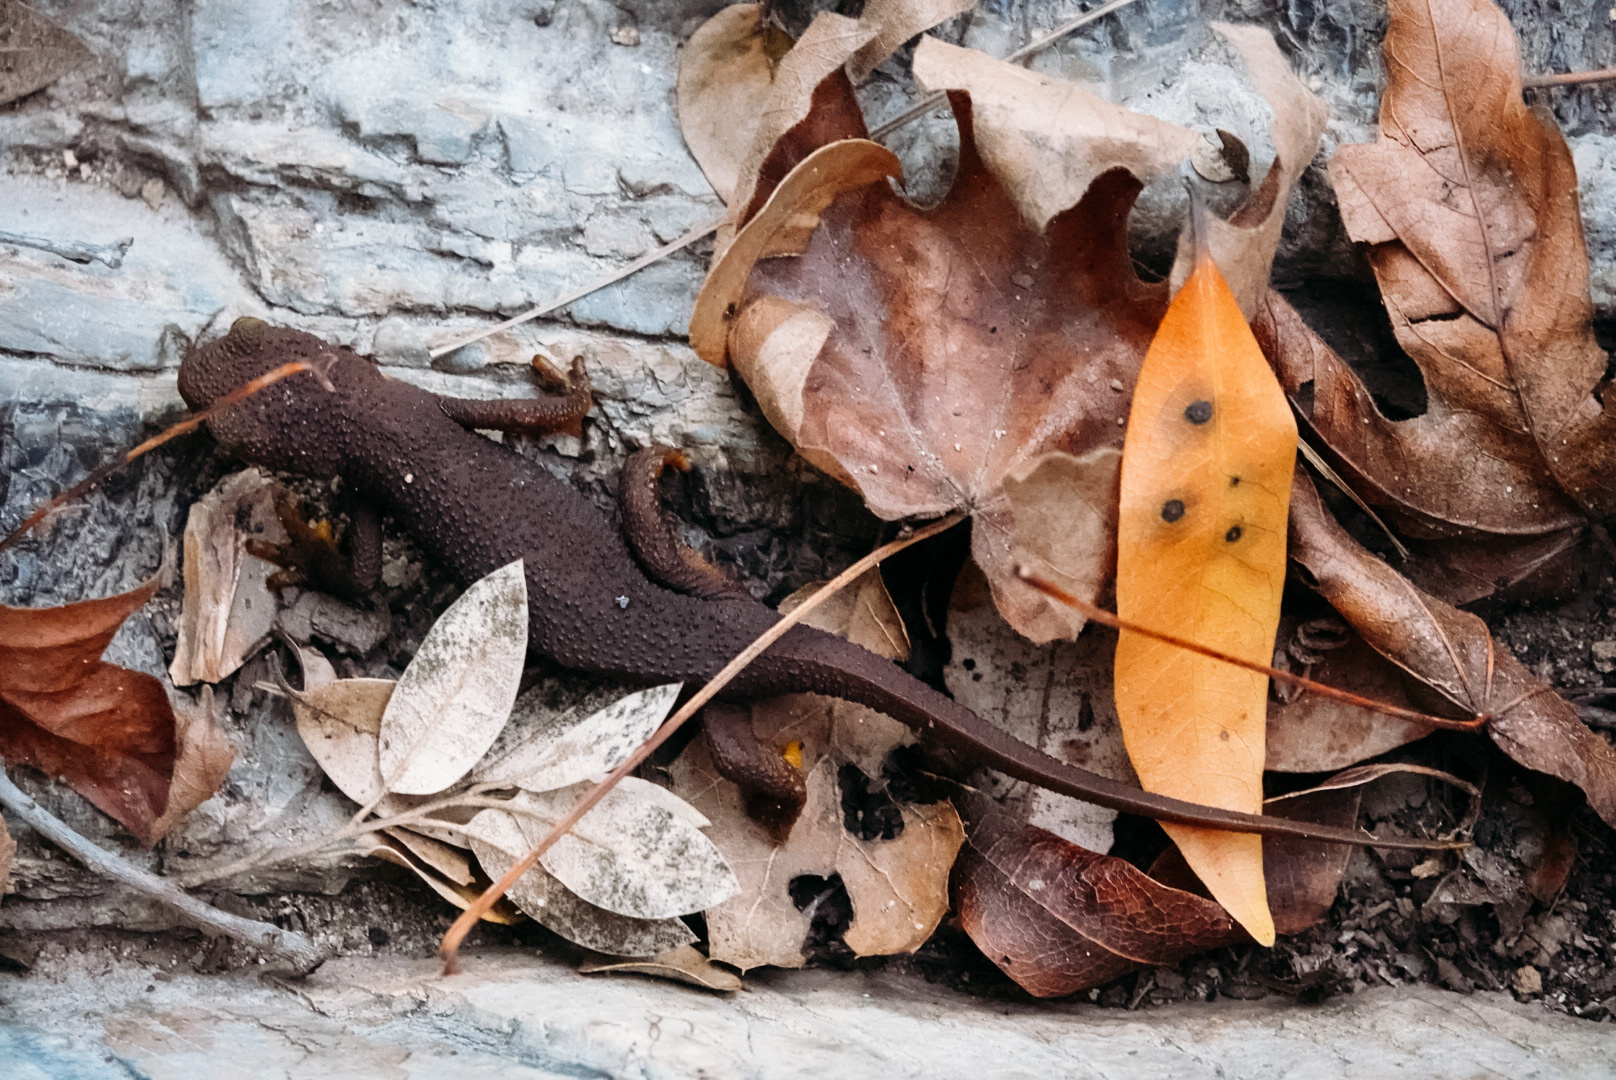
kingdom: Animalia
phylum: Chordata
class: Amphibia
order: Caudata
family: Salamandridae
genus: Taricha
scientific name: Taricha torosa
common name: California newt
